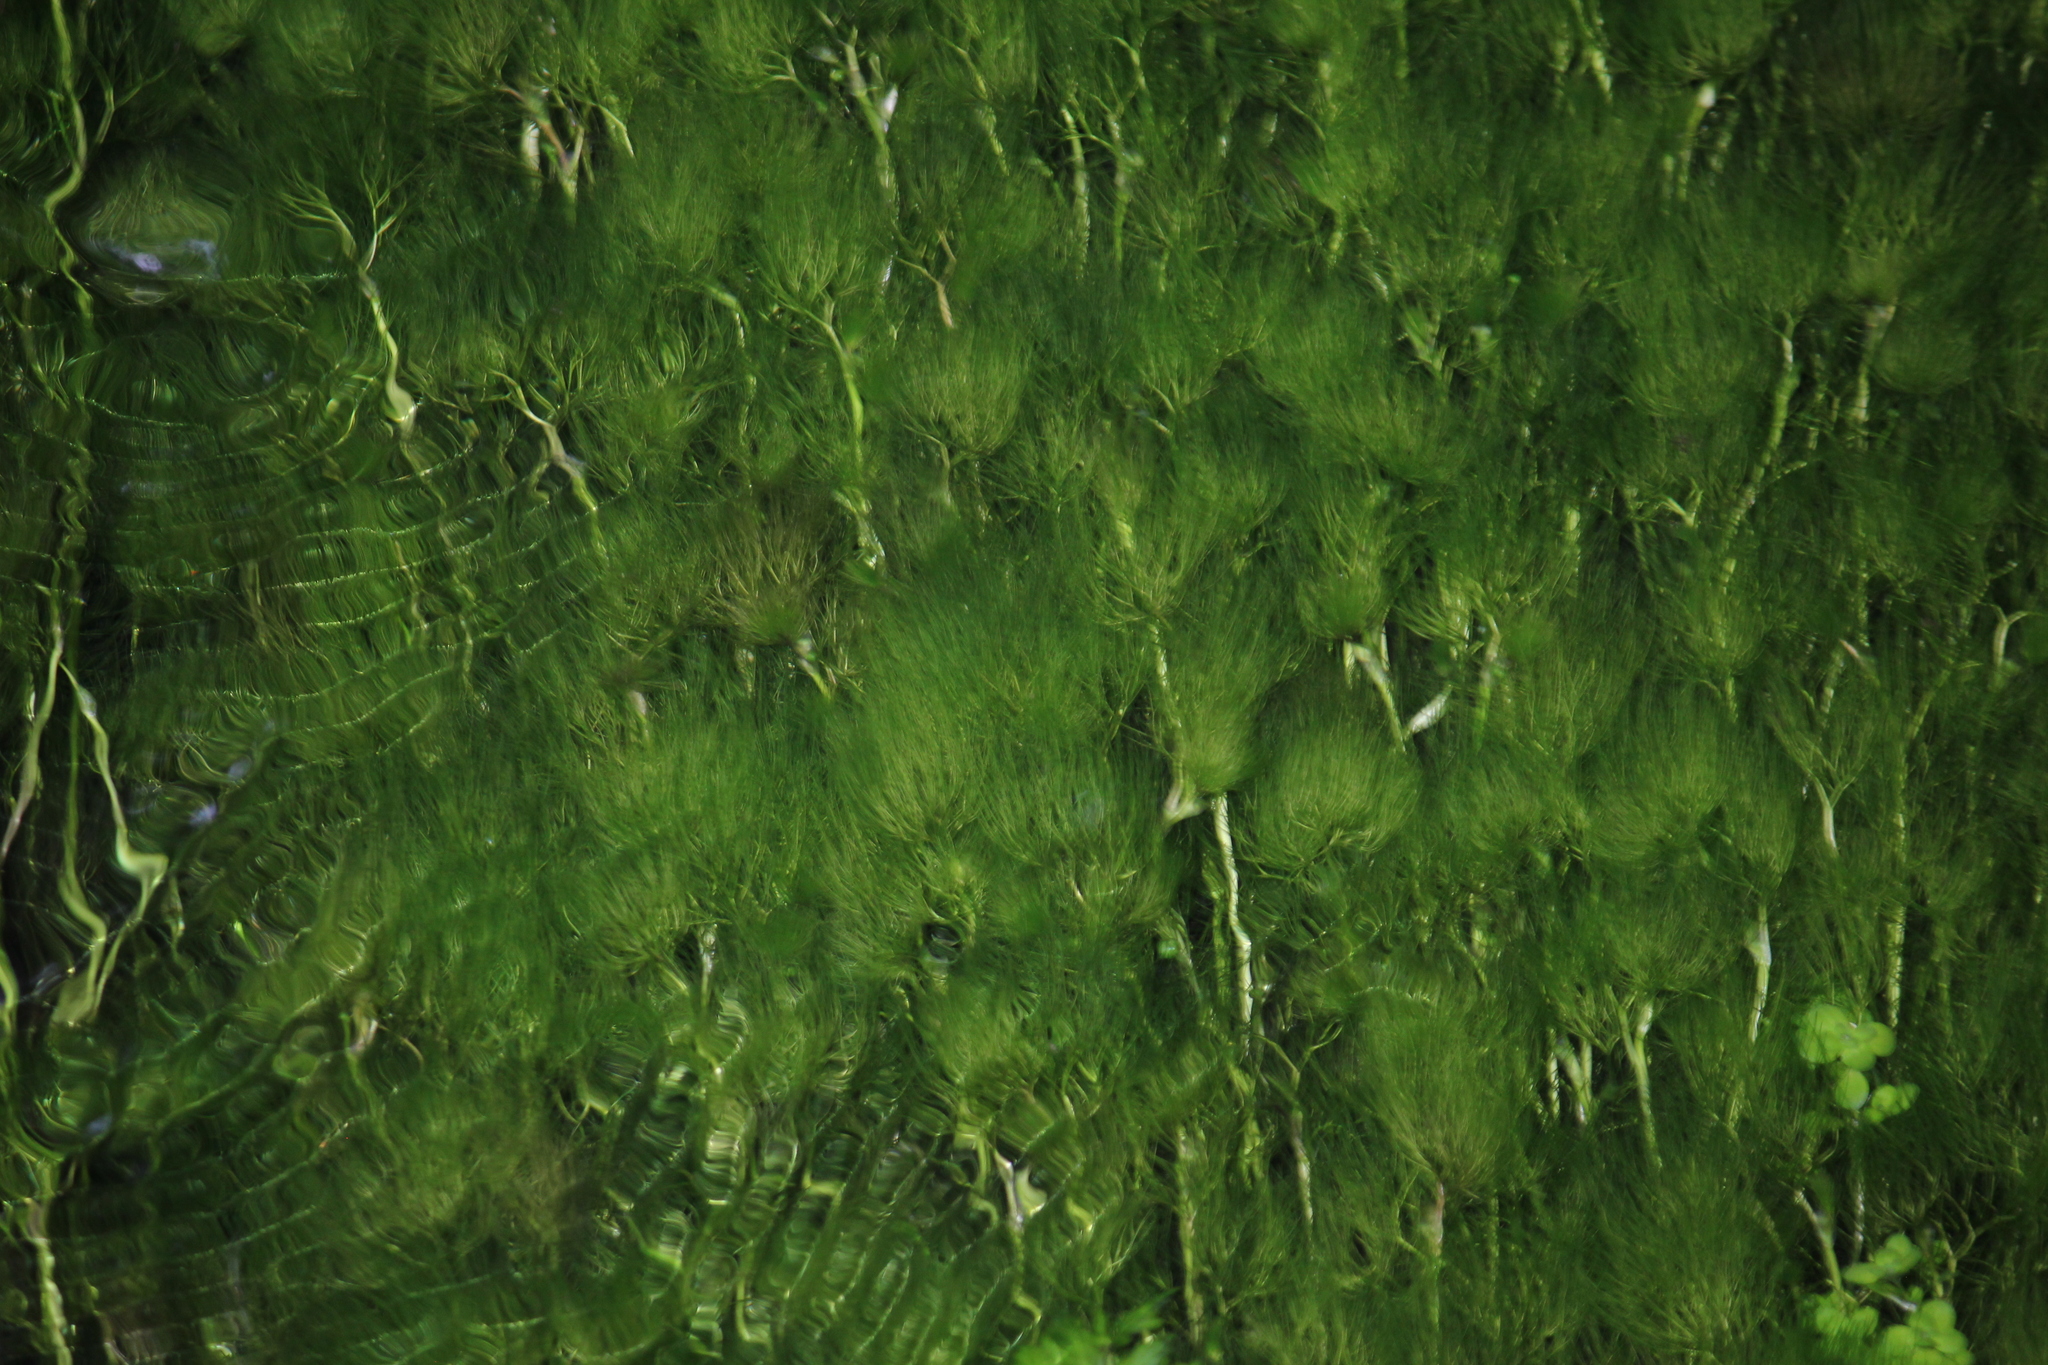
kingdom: Plantae
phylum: Tracheophyta
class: Magnoliopsida
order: Ranunculales
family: Ranunculaceae
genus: Ranunculus
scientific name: Ranunculus trichophyllus
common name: Thread-leaved water-crowfoot
